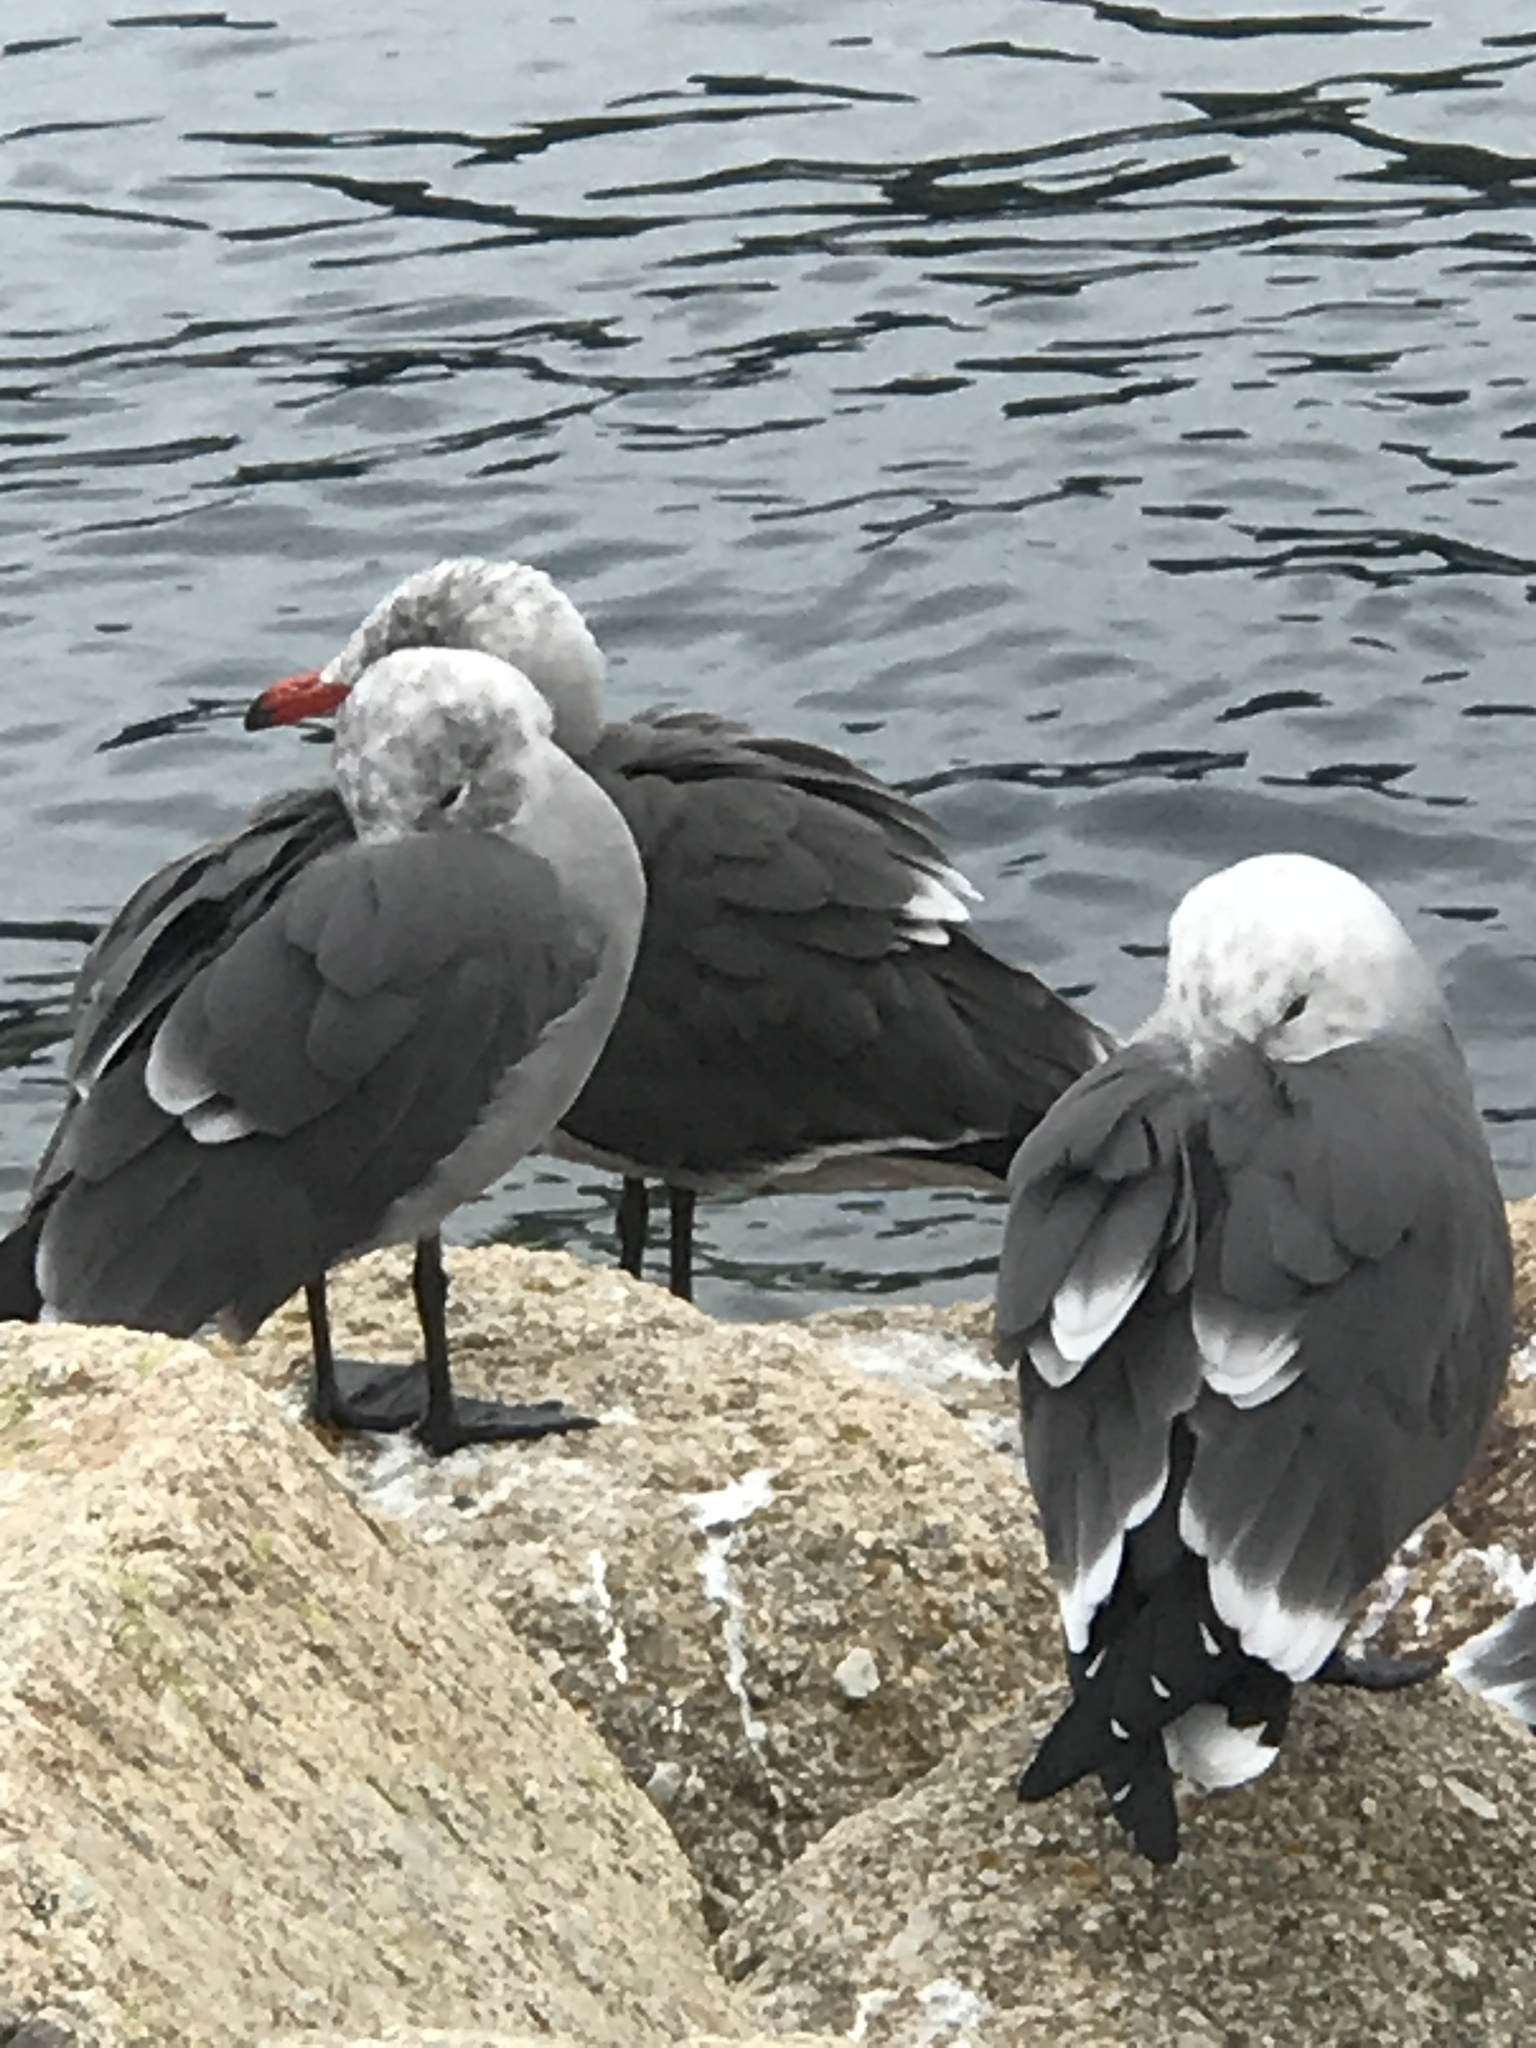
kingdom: Animalia
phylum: Chordata
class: Aves
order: Charadriiformes
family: Laridae
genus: Larus
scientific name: Larus heermanni
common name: Heermann's gull
